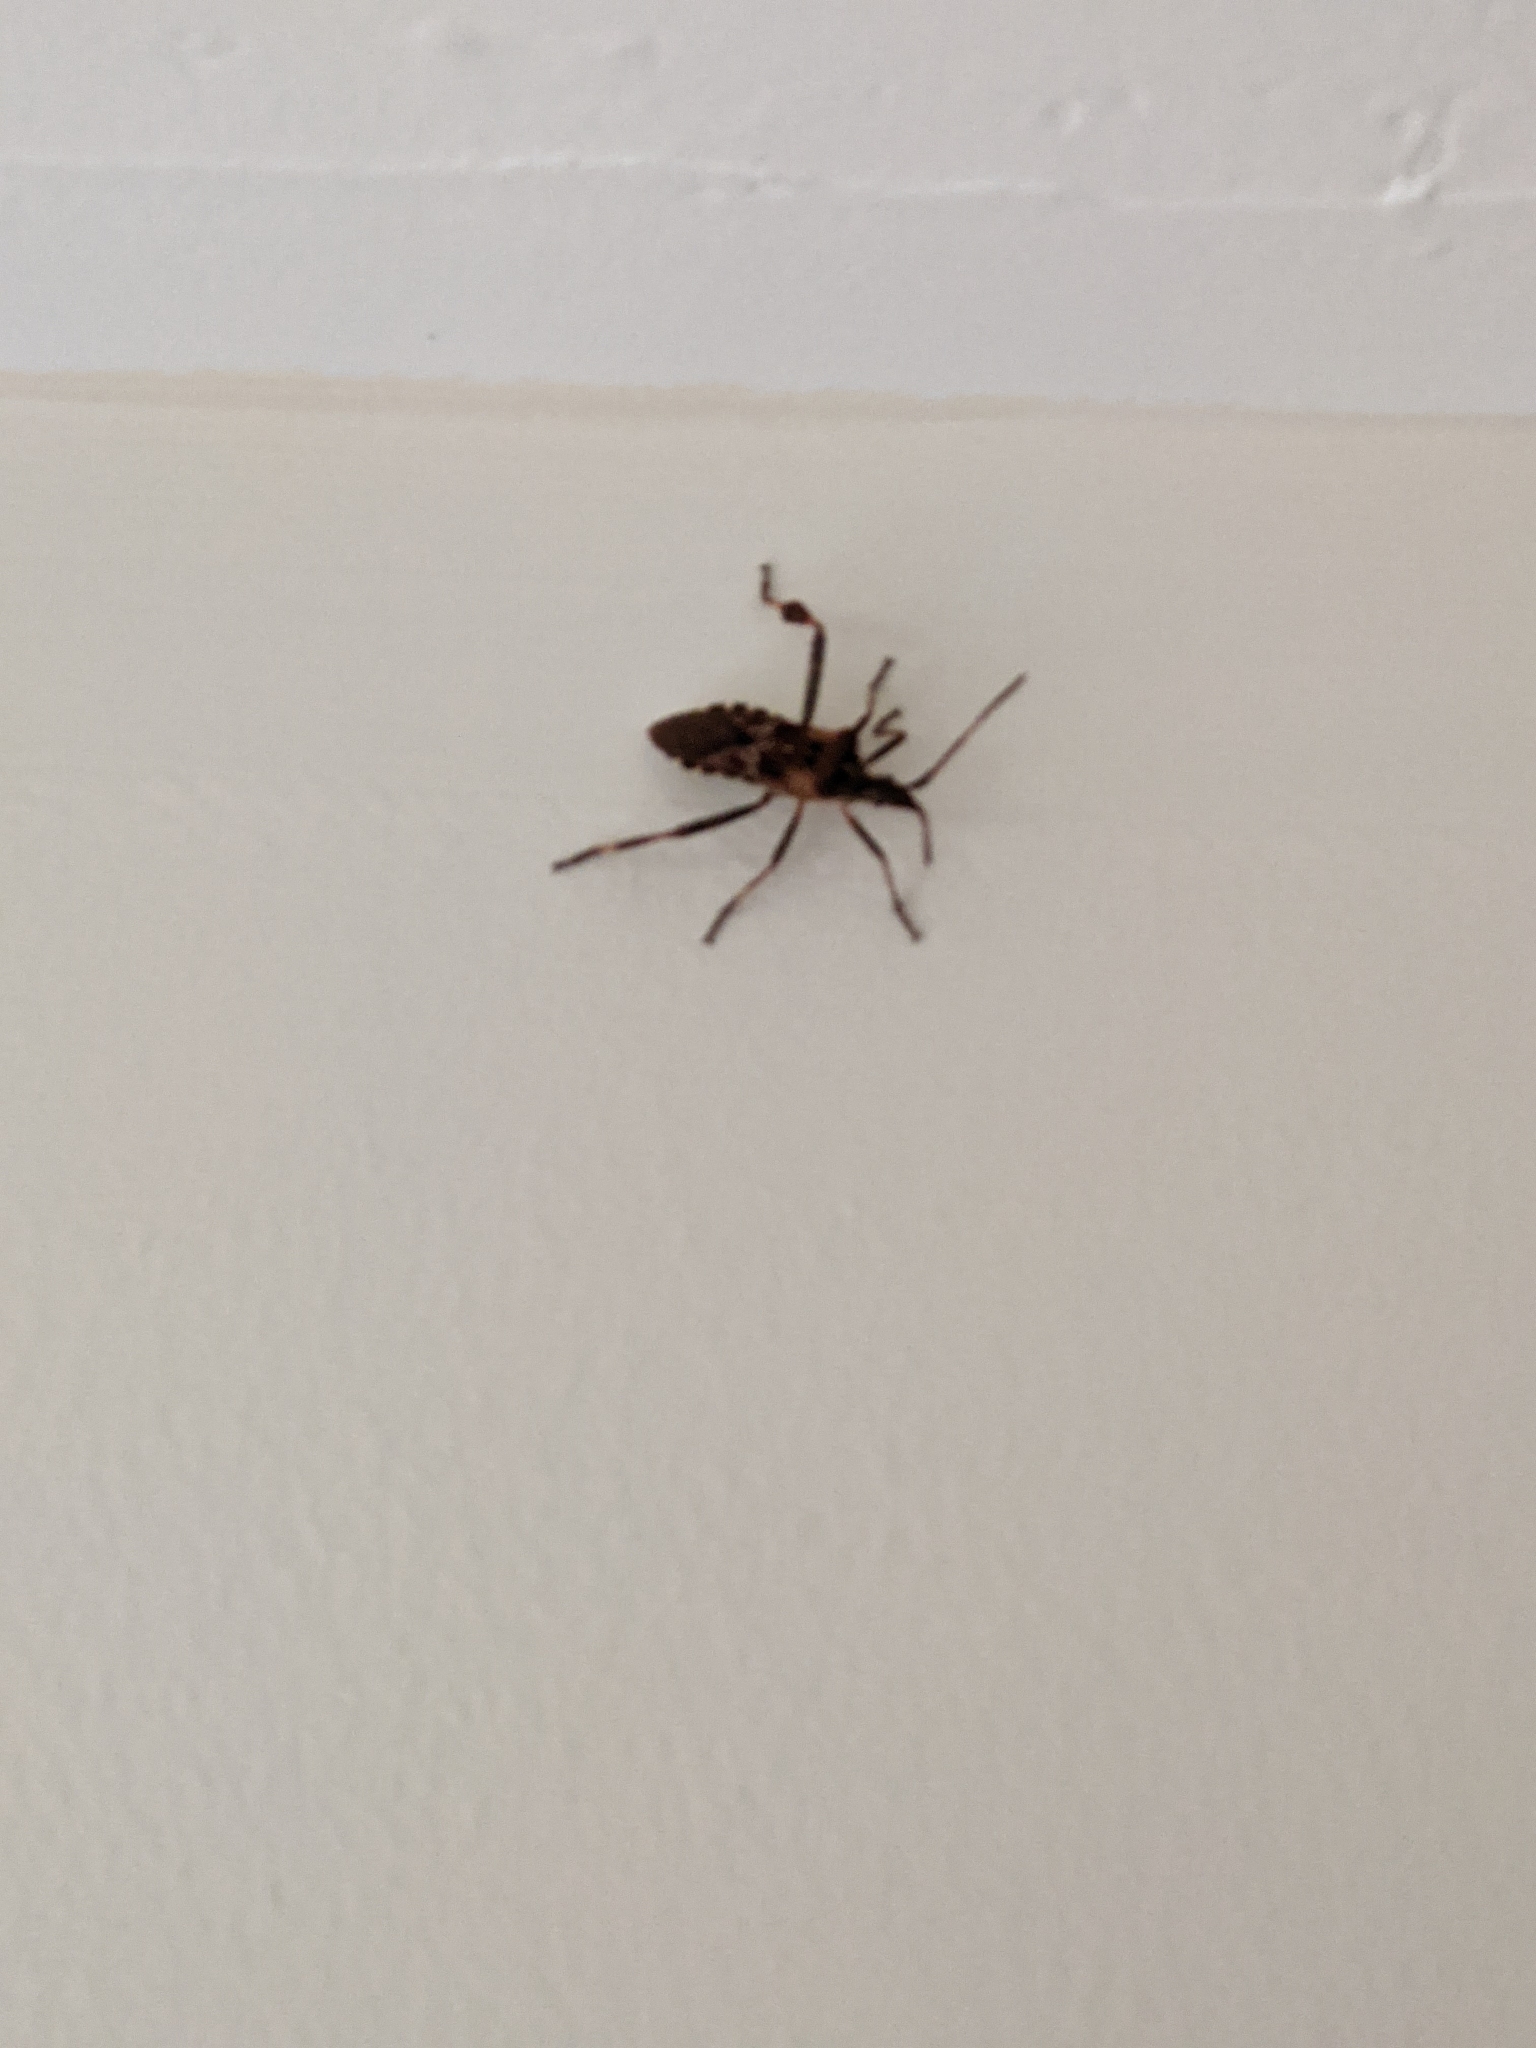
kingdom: Animalia
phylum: Arthropoda
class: Insecta
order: Hemiptera
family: Coreidae
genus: Leptoglossus
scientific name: Leptoglossus occidentalis
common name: Western conifer-seed bug
